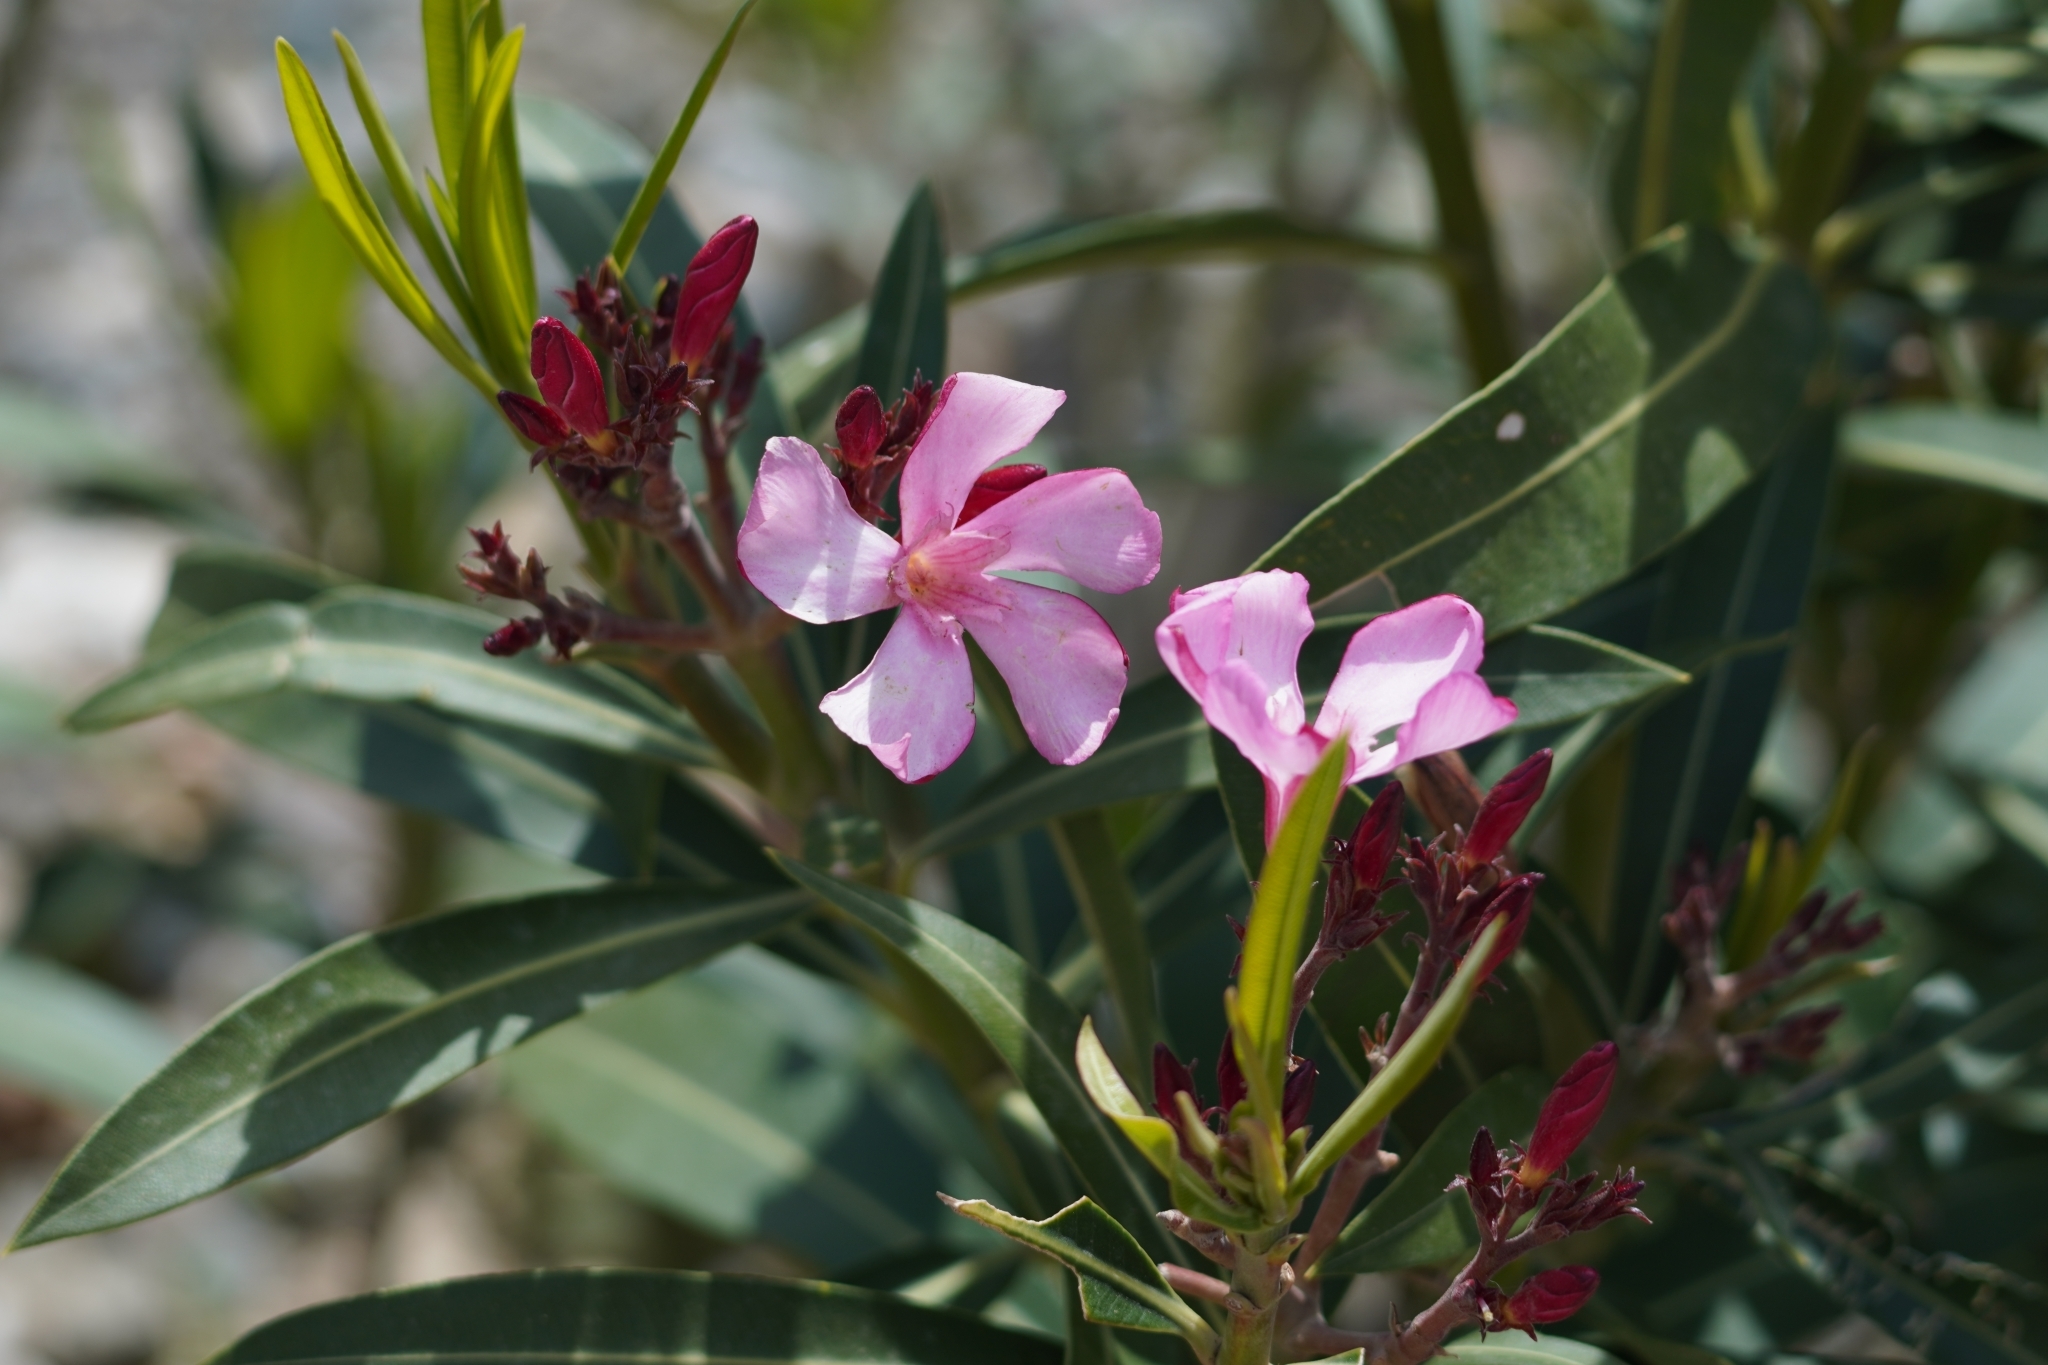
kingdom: Plantae
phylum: Tracheophyta
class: Magnoliopsida
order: Gentianales
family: Apocynaceae
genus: Nerium
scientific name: Nerium oleander
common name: Oleander
